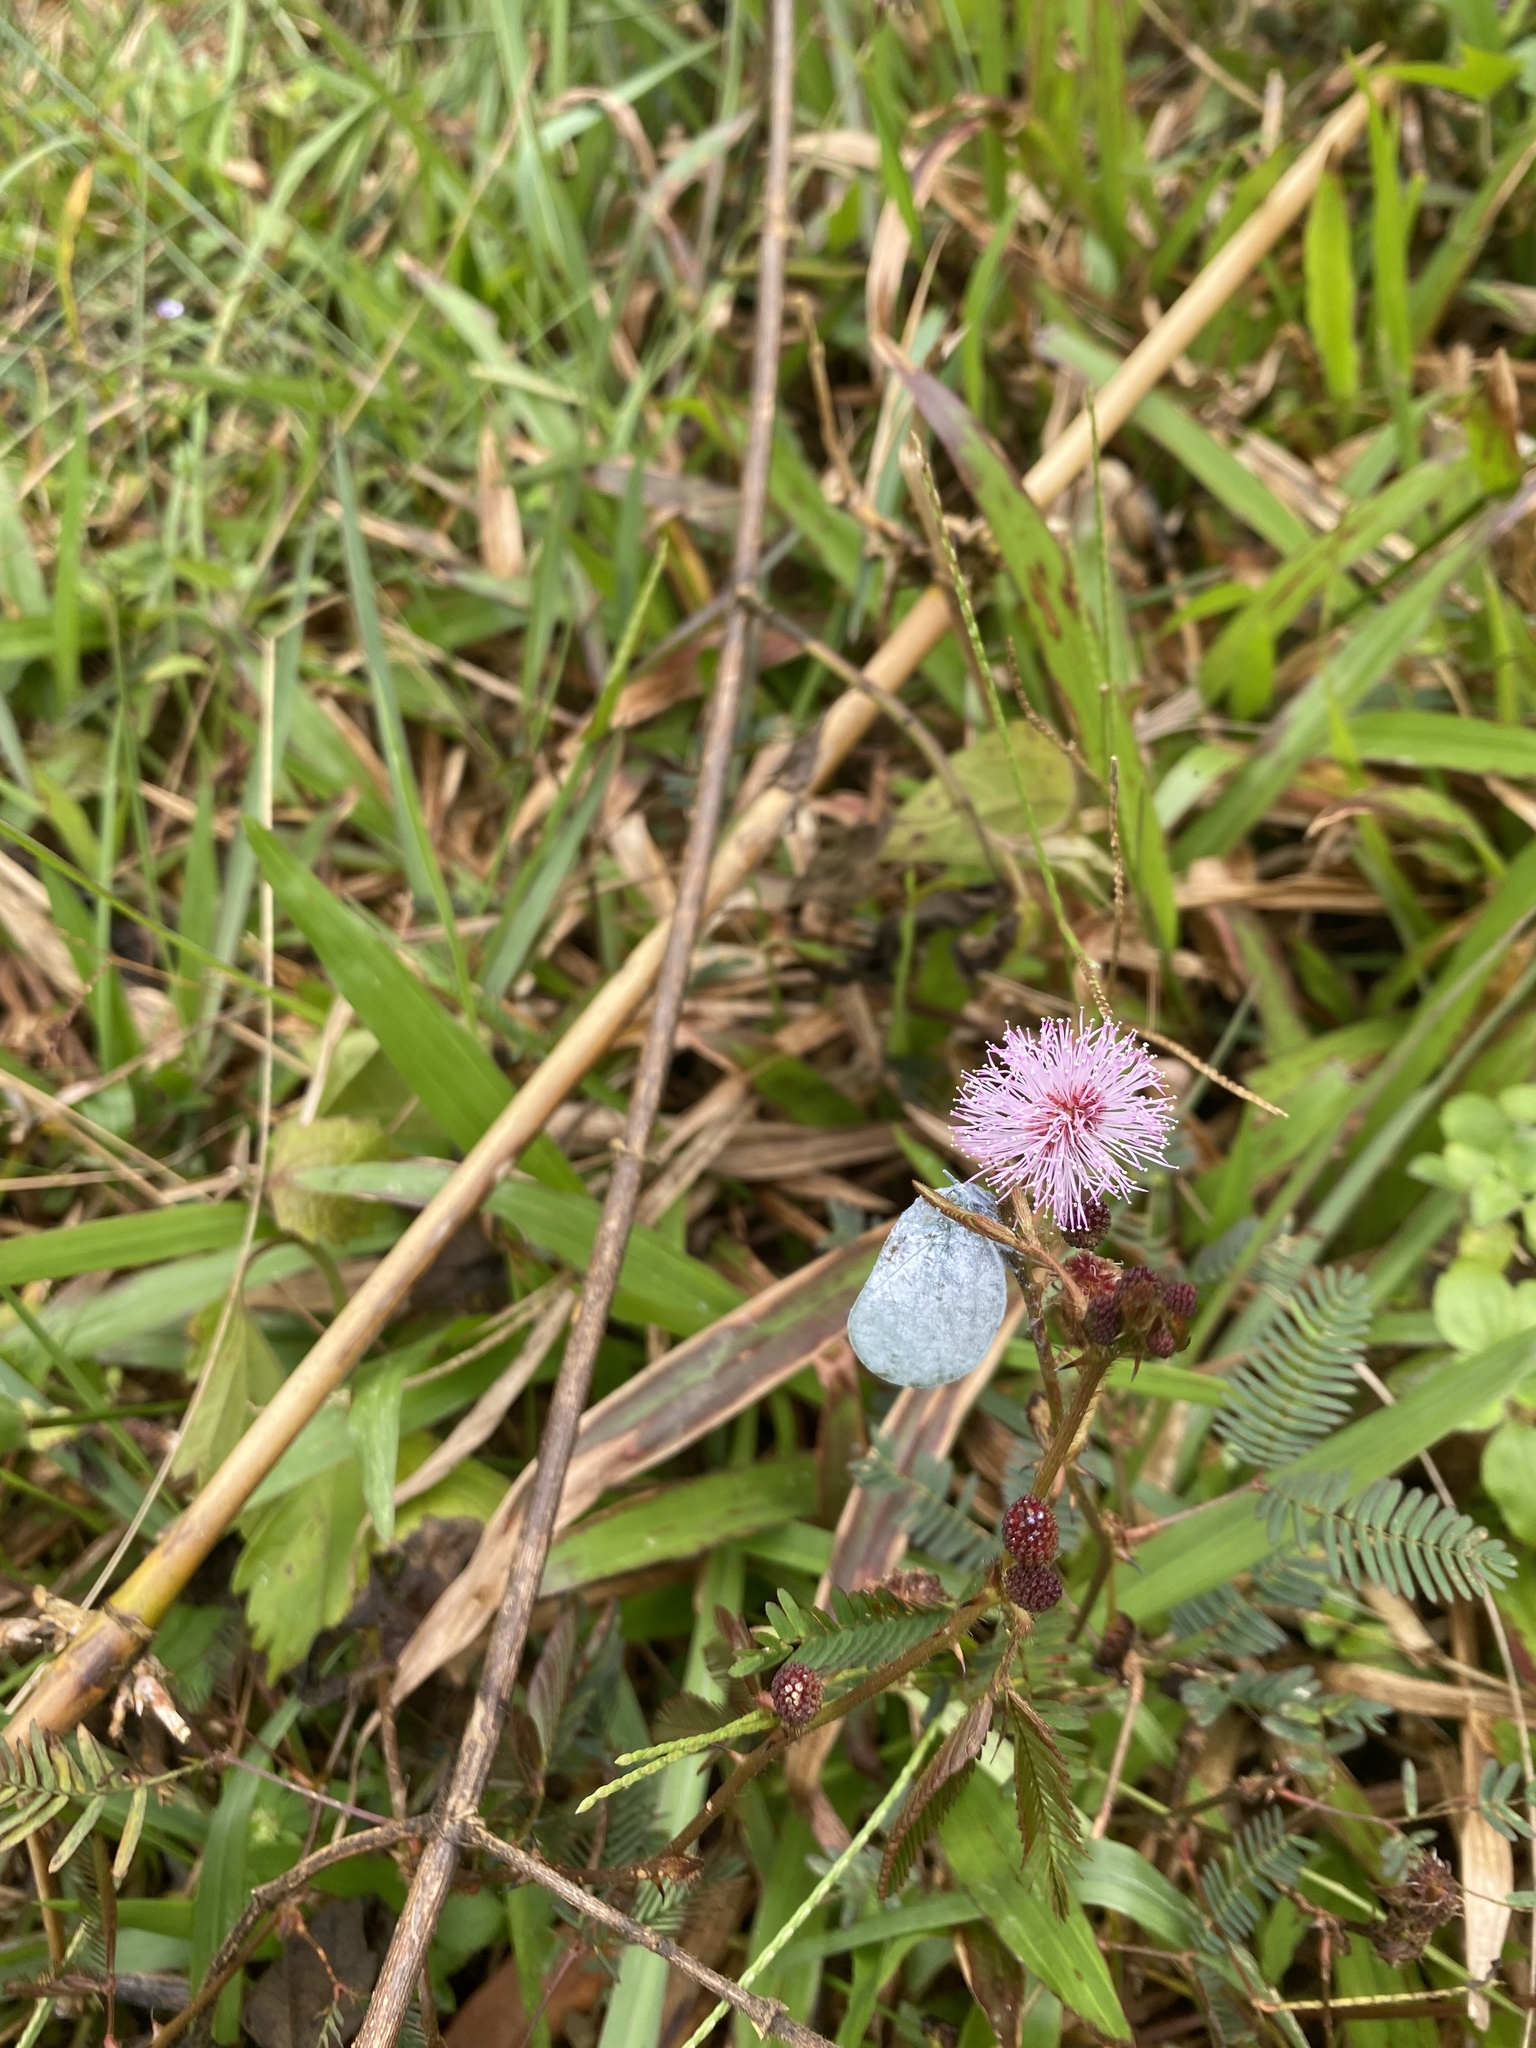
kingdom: Plantae
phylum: Tracheophyta
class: Magnoliopsida
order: Fabales
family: Fabaceae
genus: Mimosa
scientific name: Mimosa pudica
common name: Sensitive plant
